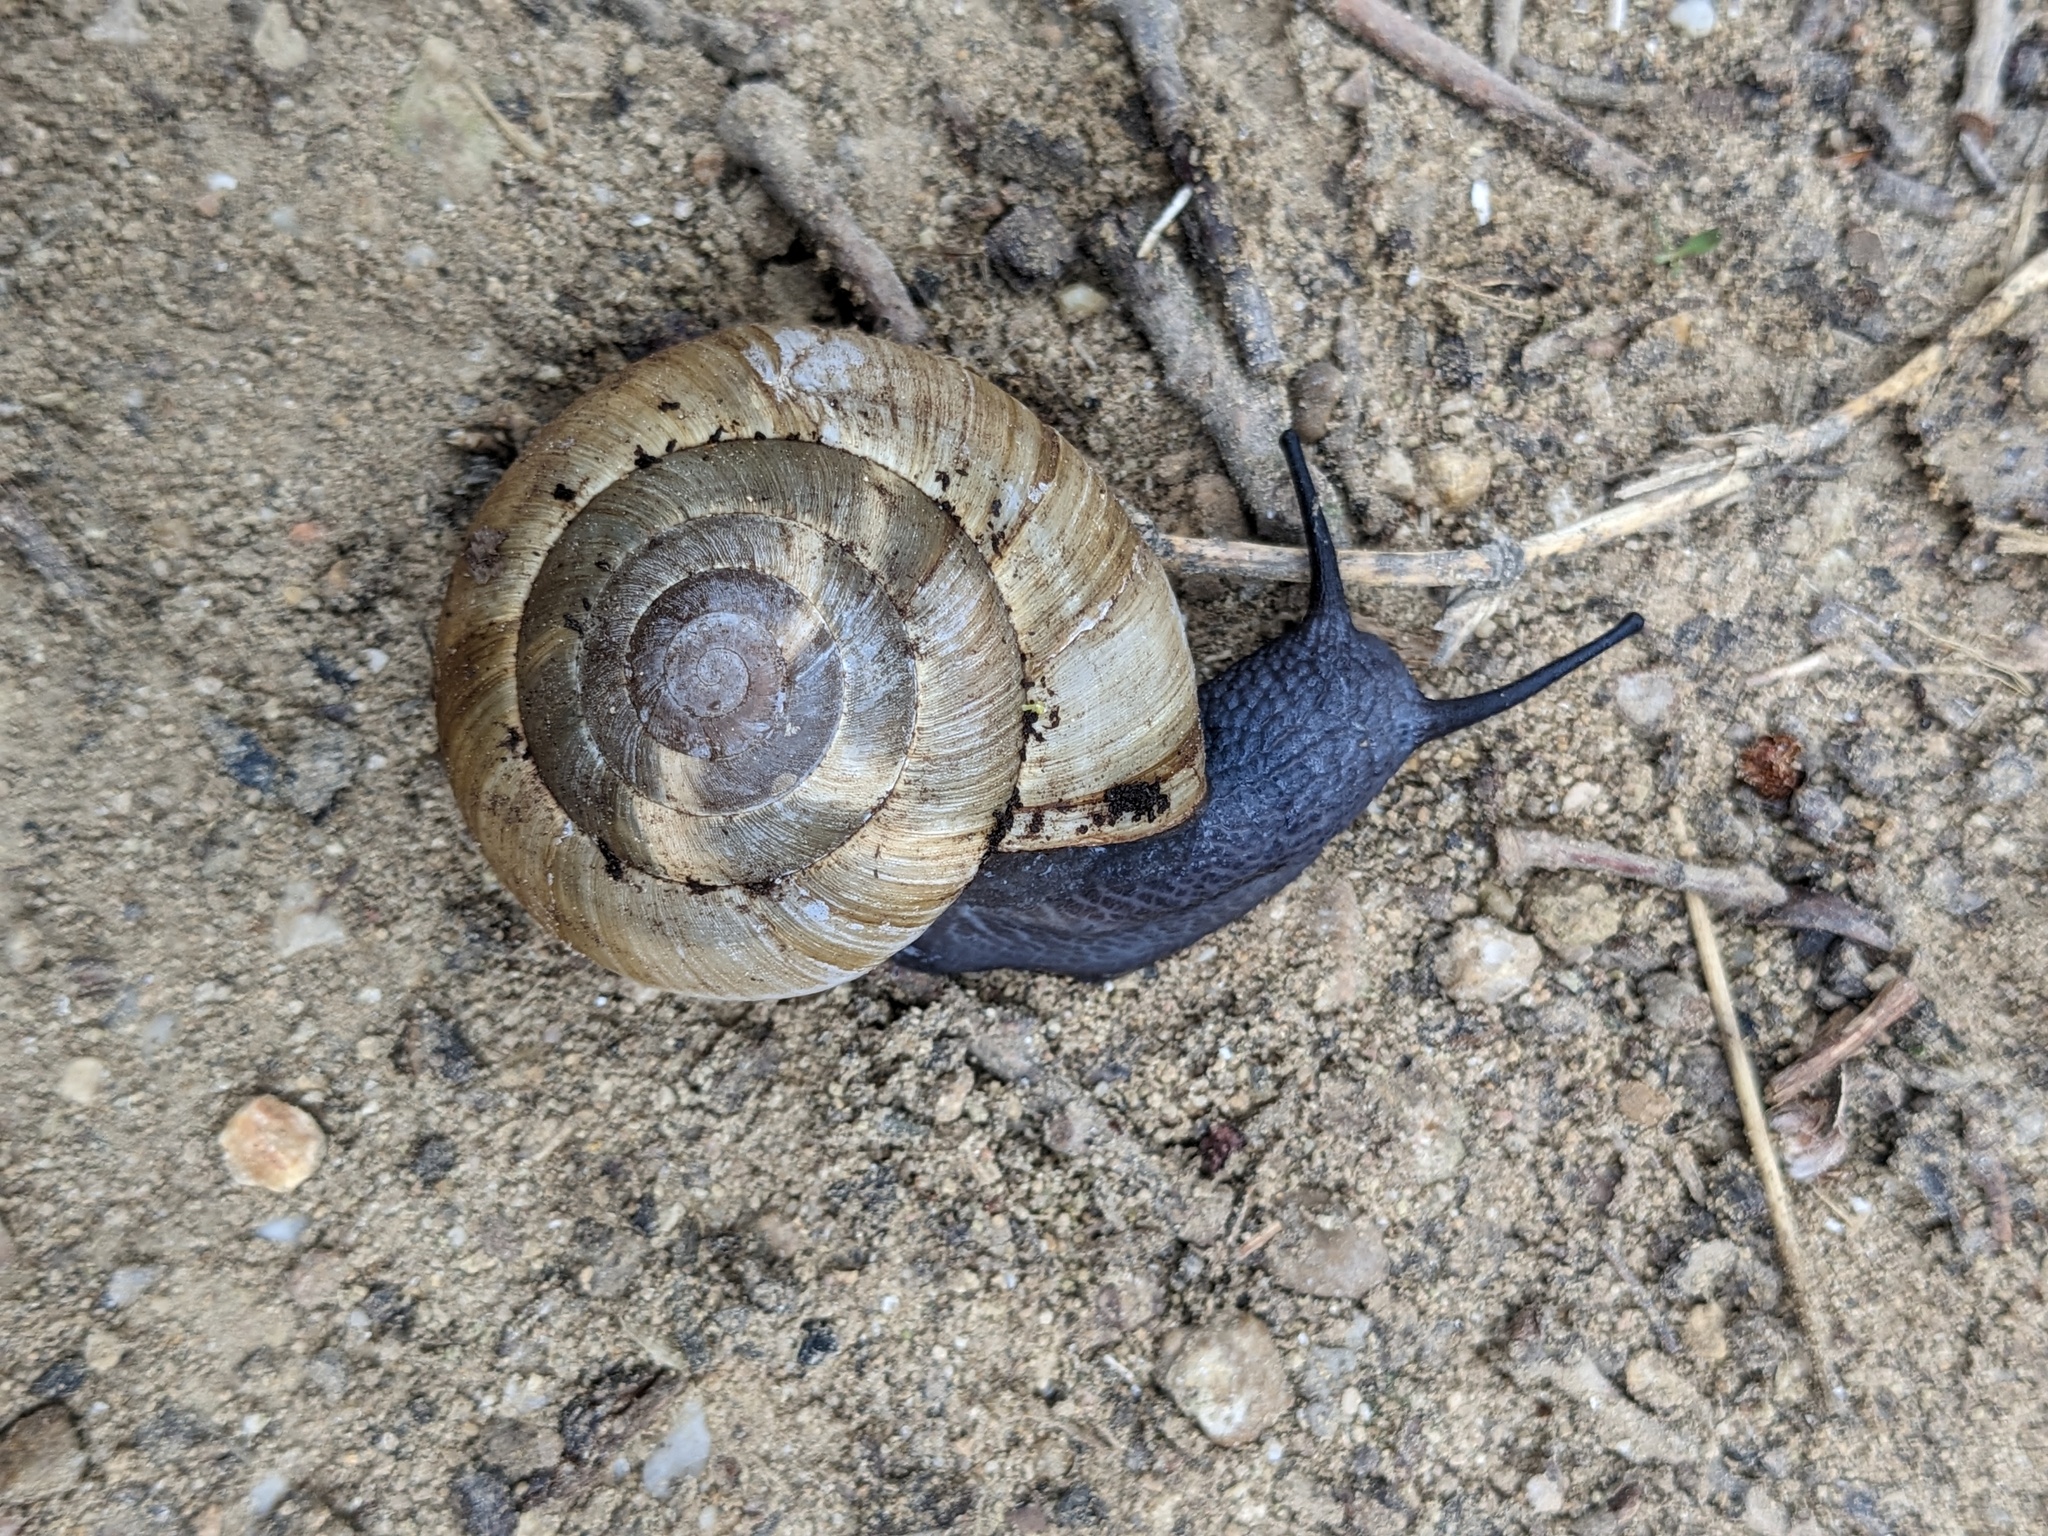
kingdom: Animalia
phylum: Mollusca
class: Gastropoda
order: Stylommatophora
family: Zonitidae
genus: Zonites
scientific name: Zonites algirus
